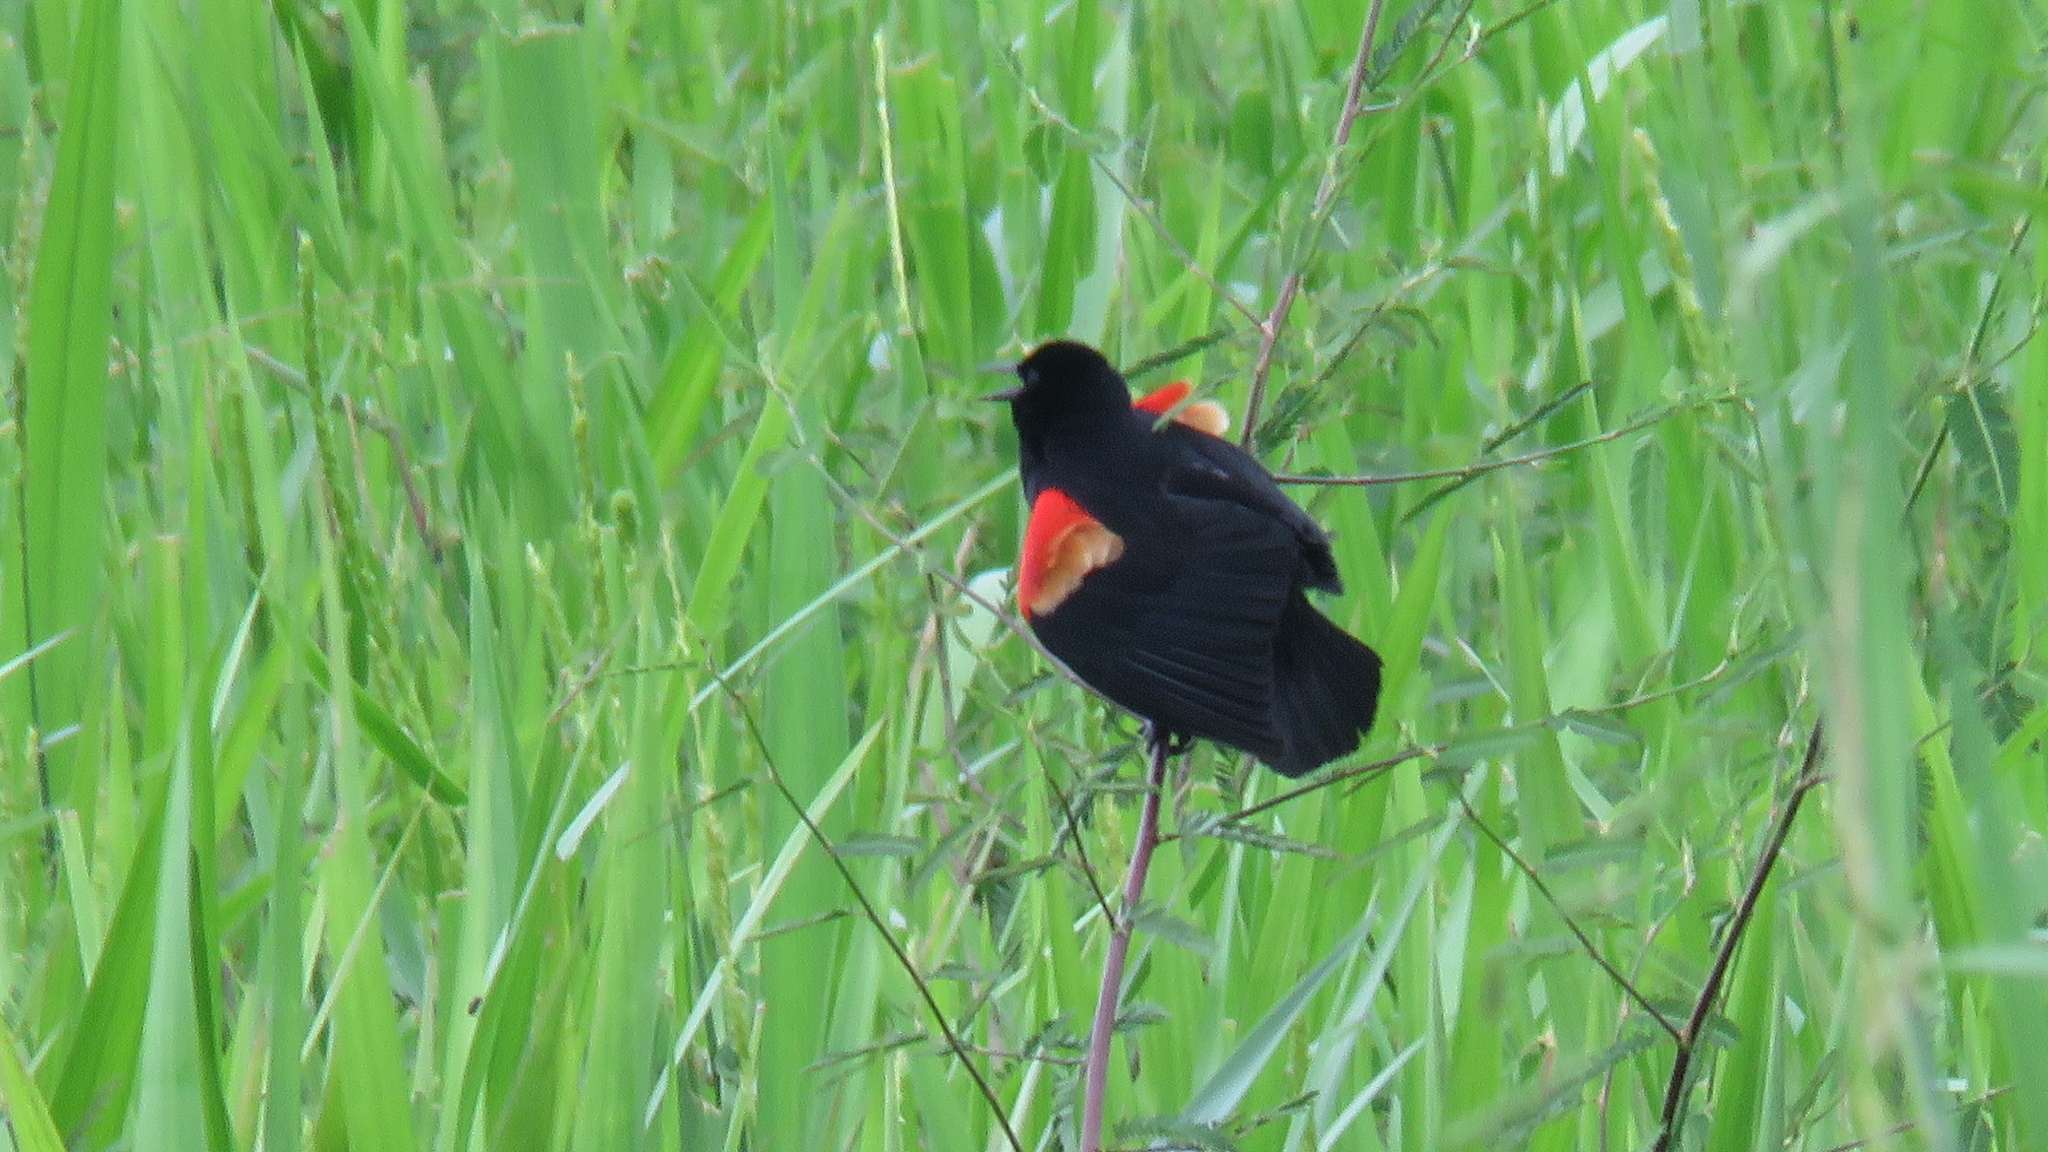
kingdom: Animalia
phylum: Chordata
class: Aves
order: Passeriformes
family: Icteridae
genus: Agelaius
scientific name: Agelaius phoeniceus
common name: Red-winged blackbird
